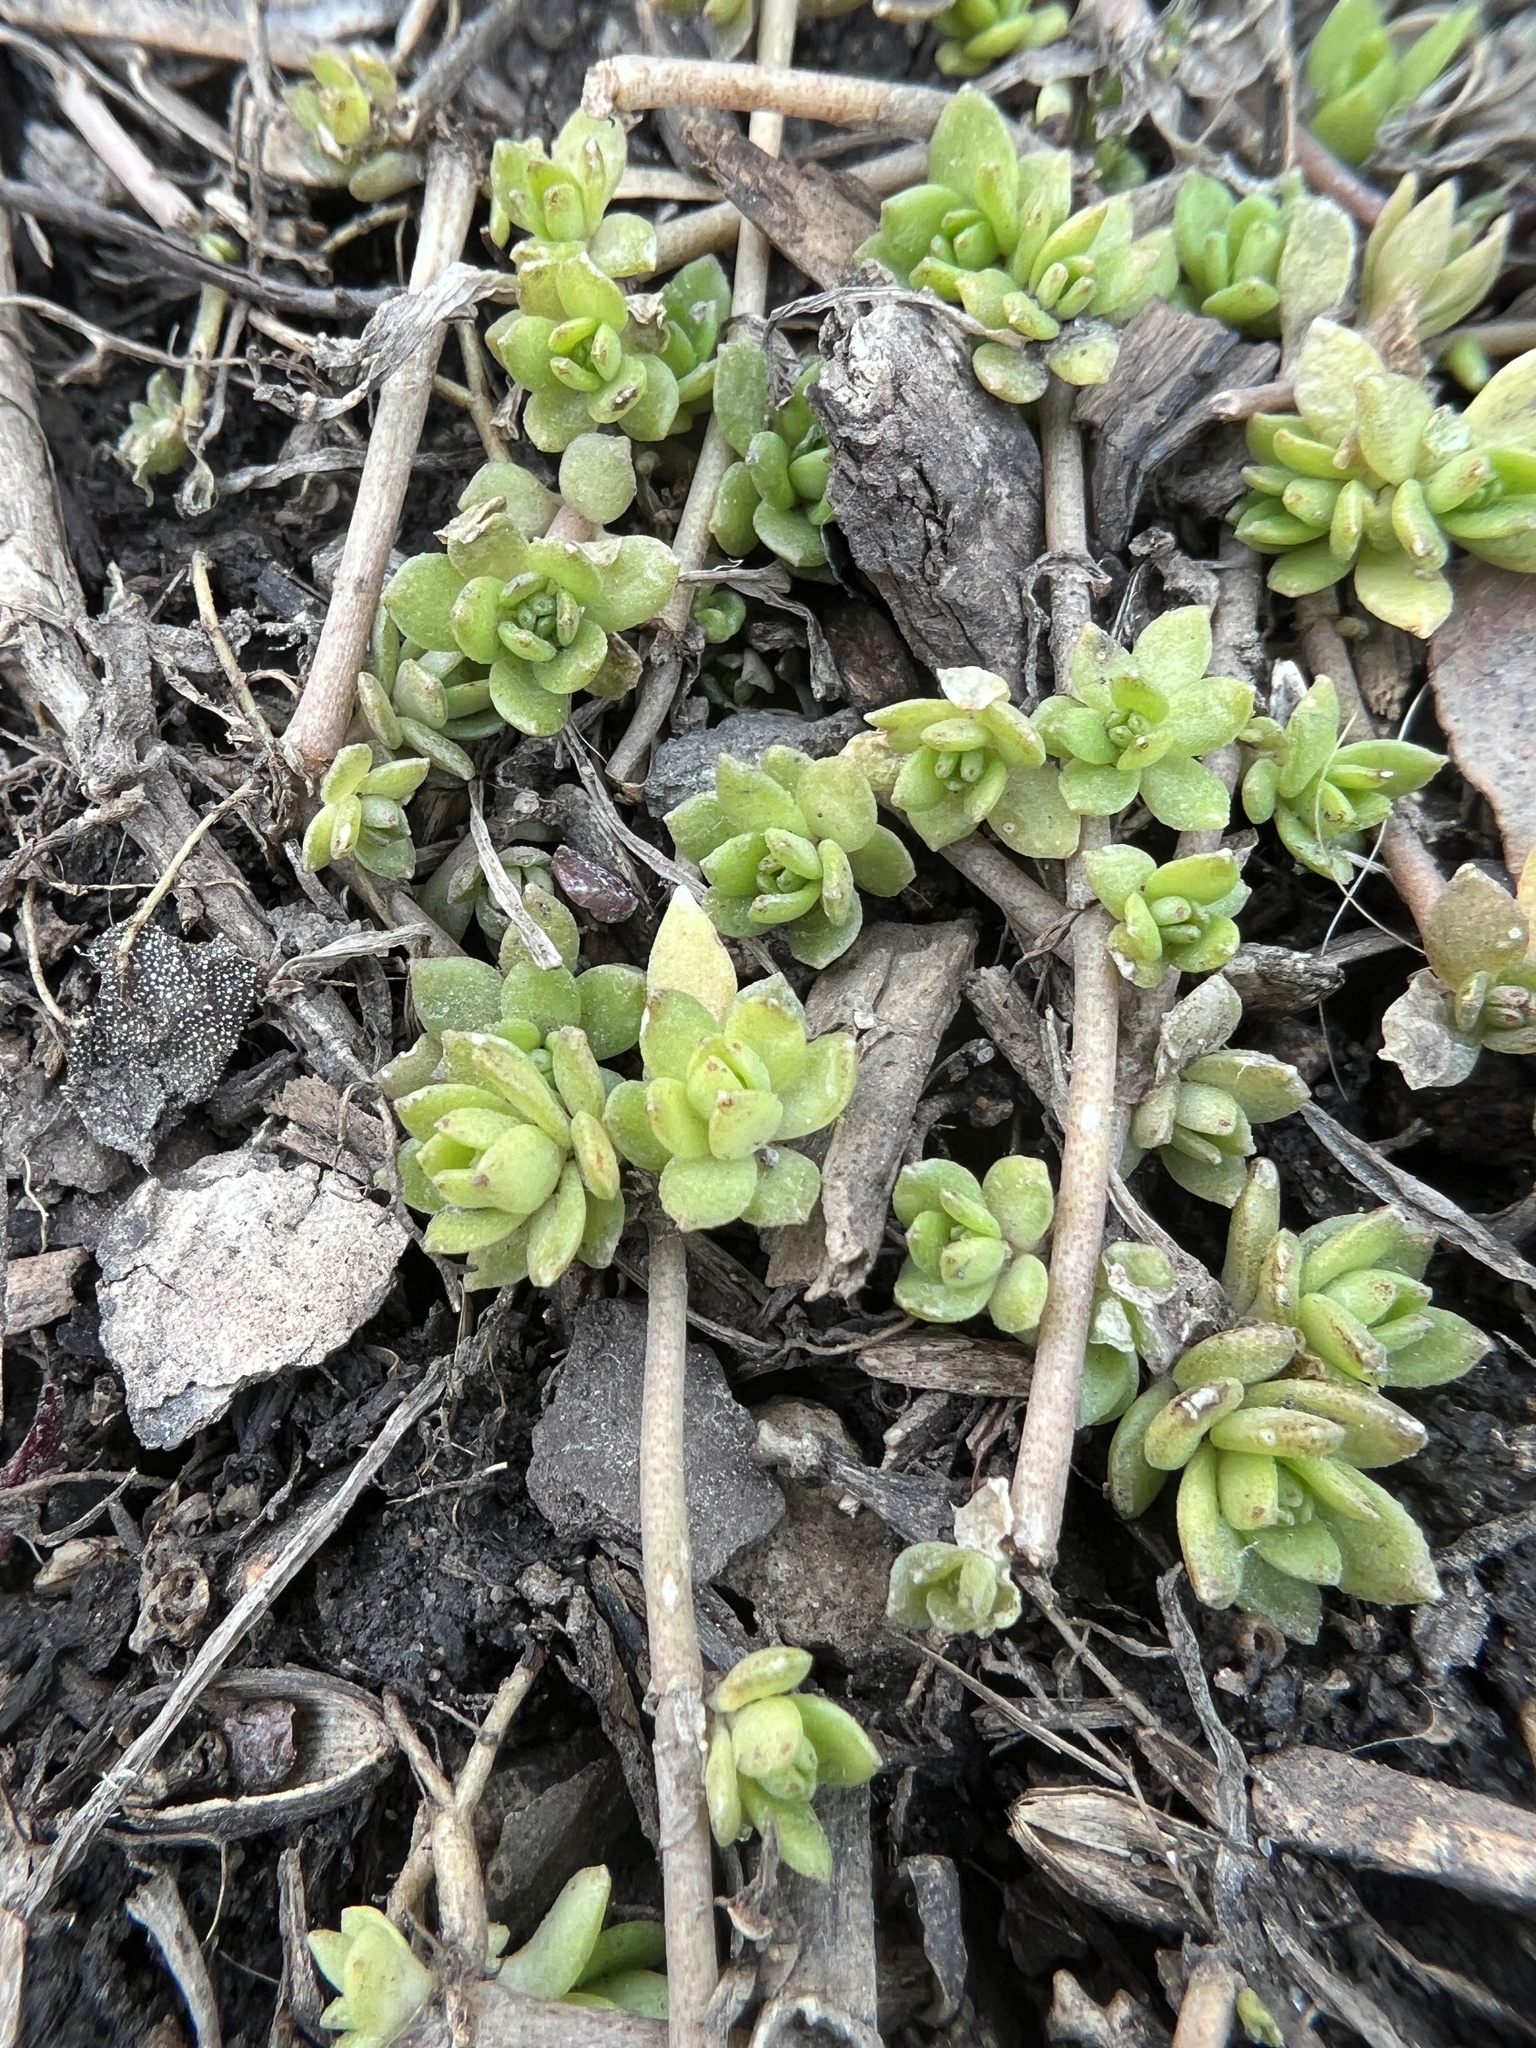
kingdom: Plantae
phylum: Tracheophyta
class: Magnoliopsida
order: Saxifragales
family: Crassulaceae
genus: Sedum
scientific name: Sedum sarmentosum
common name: Stringy stonecrop
